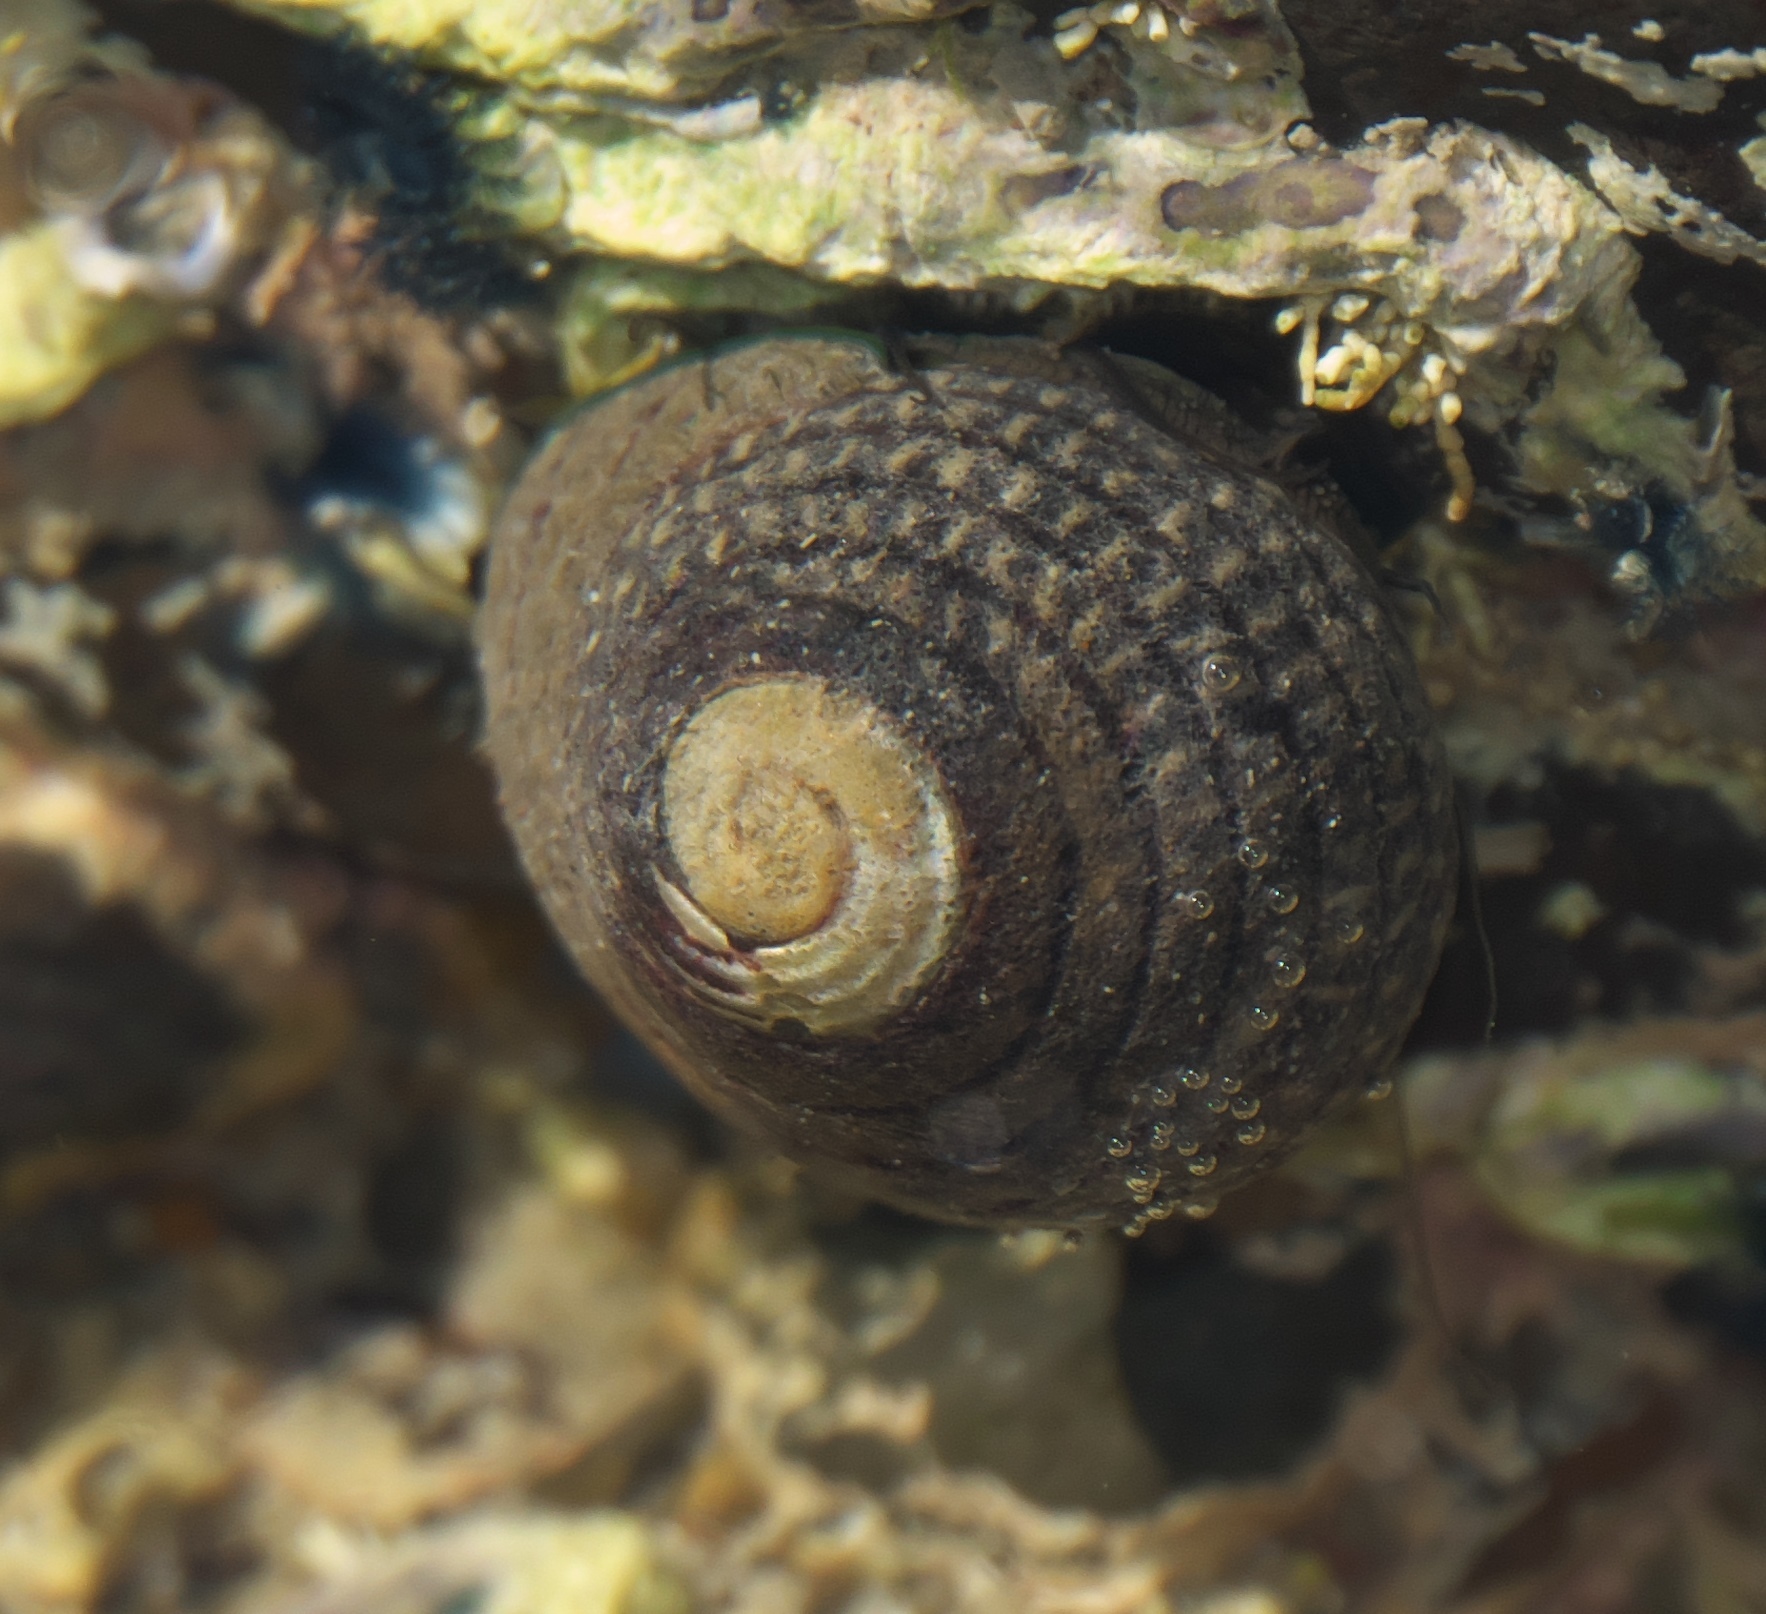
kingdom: Animalia
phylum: Mollusca
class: Gastropoda
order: Trochida
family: Trochidae
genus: Diloma
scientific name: Diloma aethiops
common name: Scorched monodont
